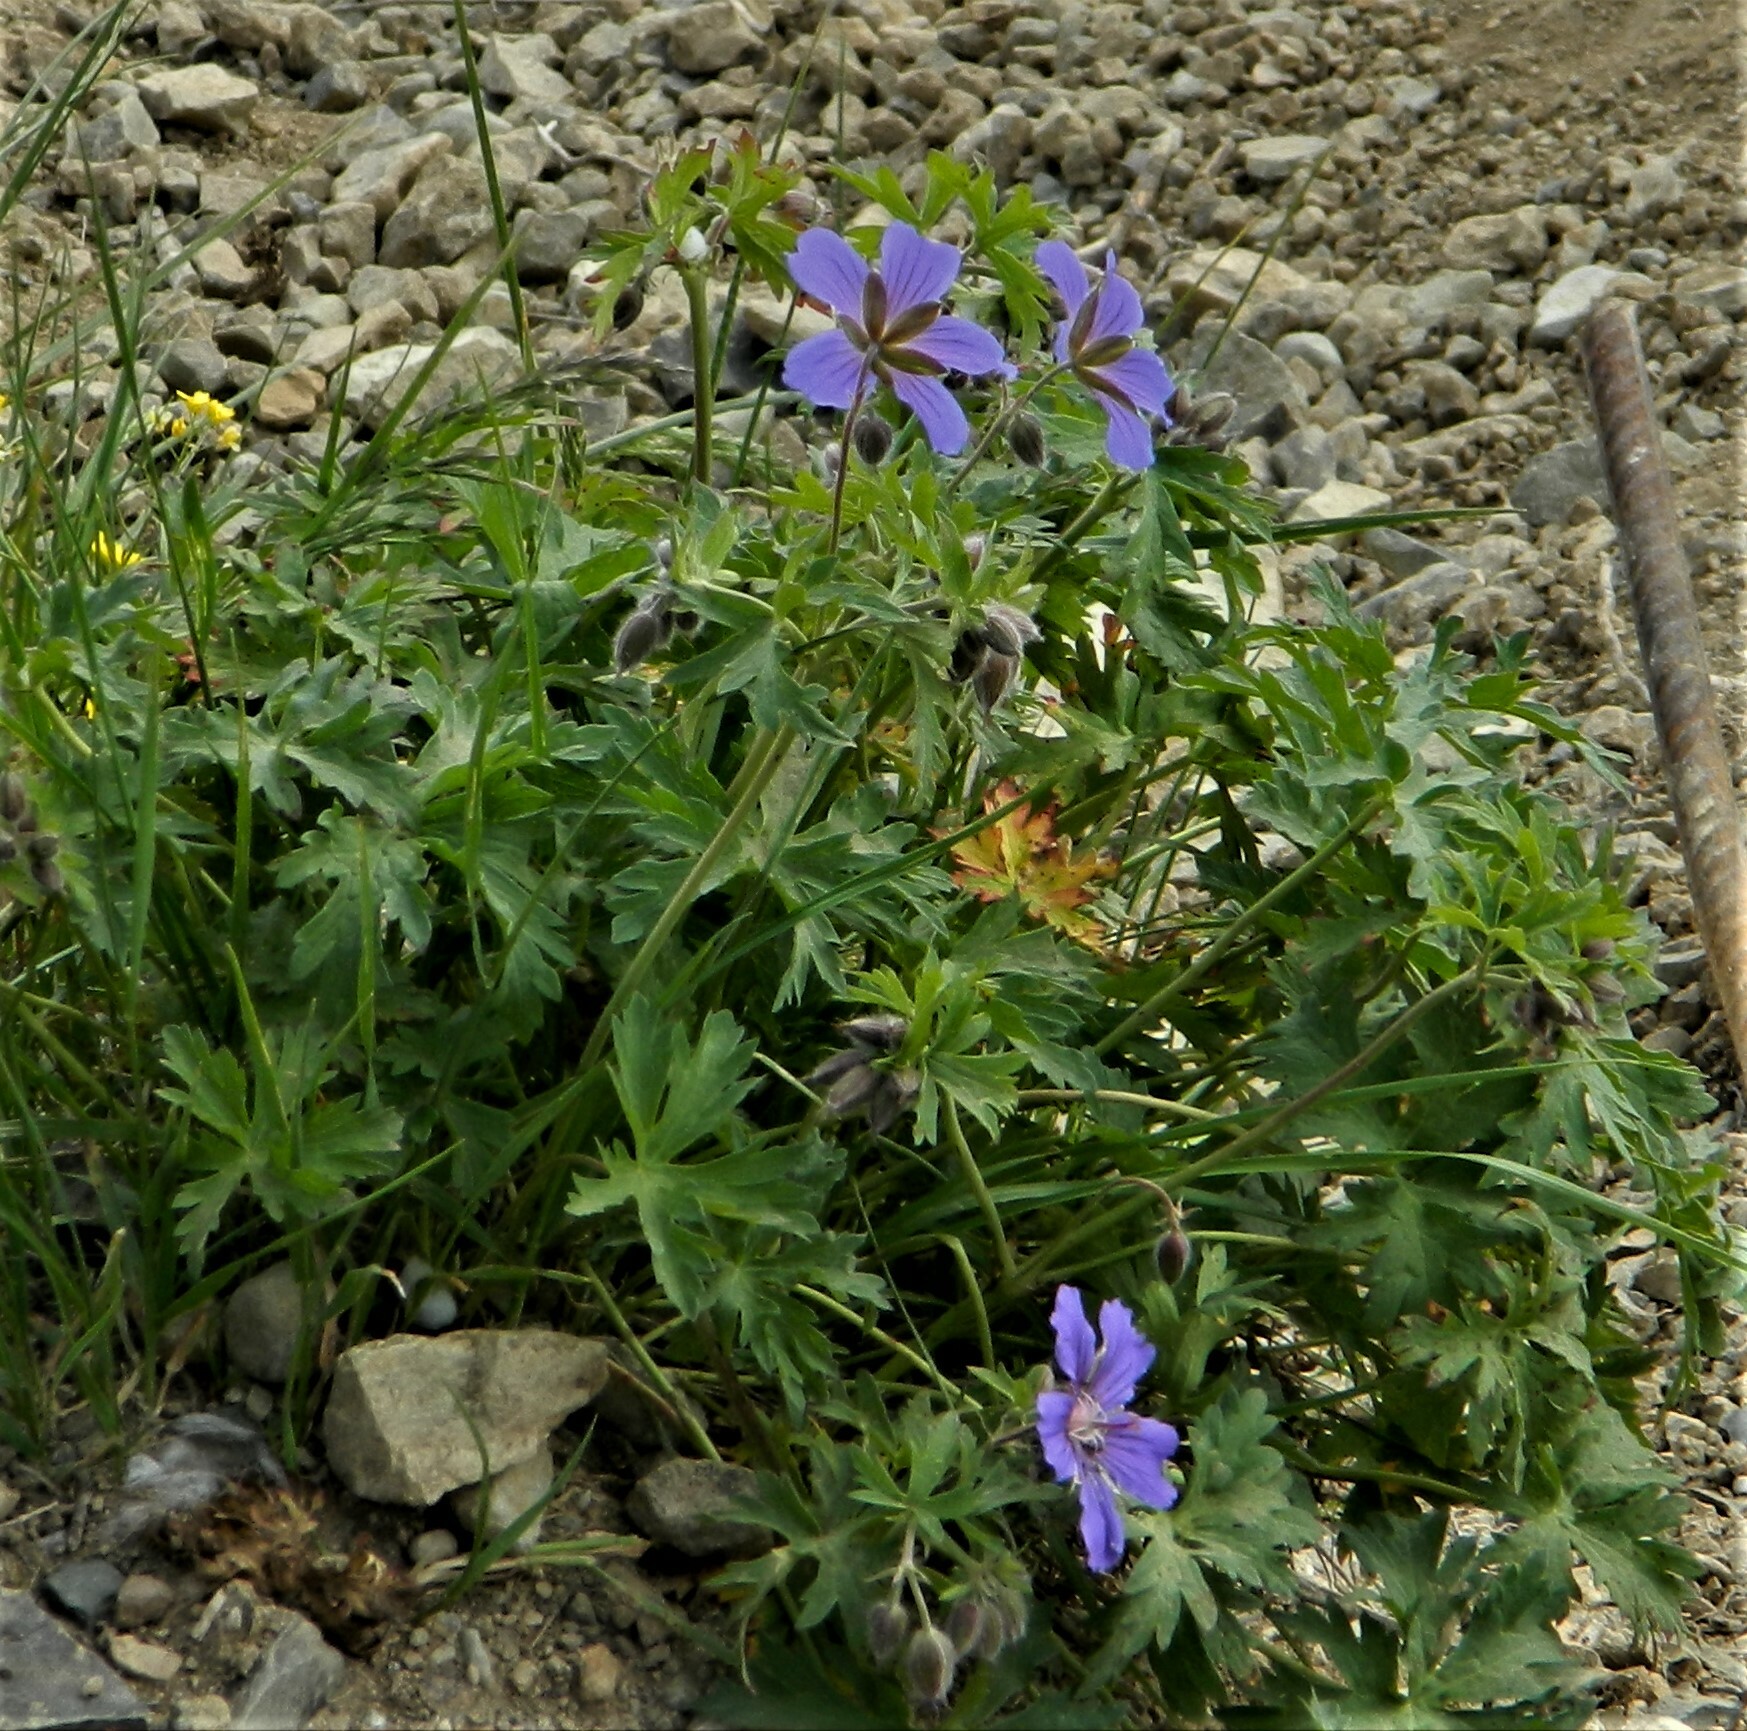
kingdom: Plantae
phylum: Tracheophyta
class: Magnoliopsida
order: Geraniales
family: Geraniaceae
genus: Geranium
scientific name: Geranium gymnocaulon
